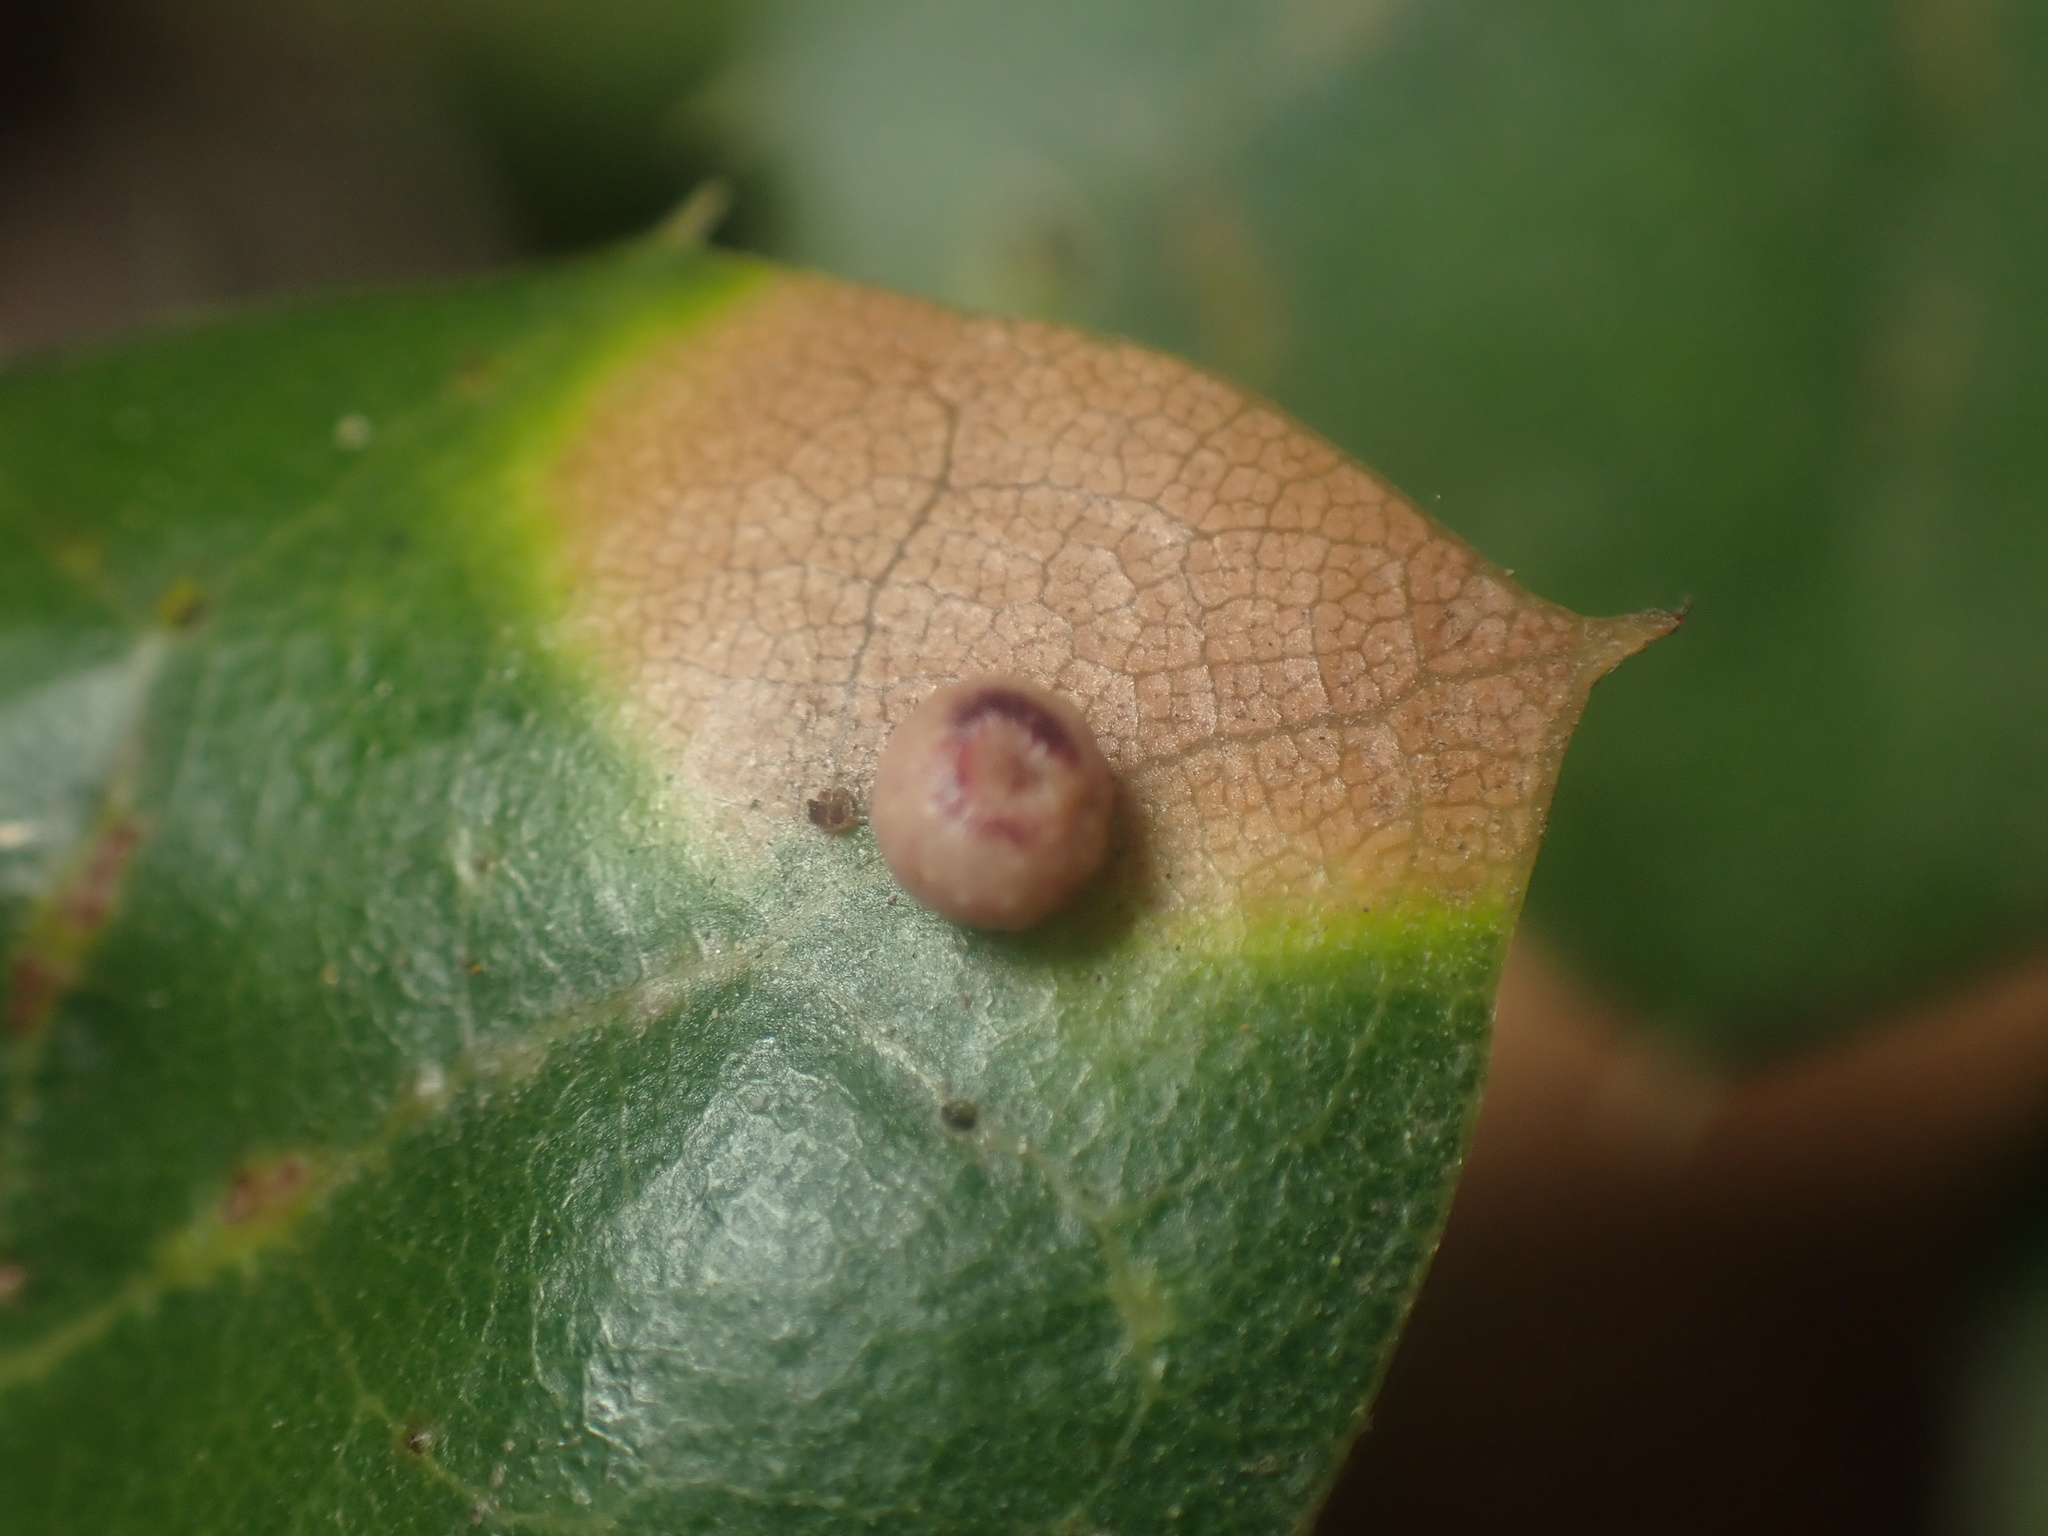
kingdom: Animalia
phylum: Arthropoda
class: Insecta
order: Hymenoptera
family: Cynipidae
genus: Dryocosmus
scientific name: Dryocosmus
